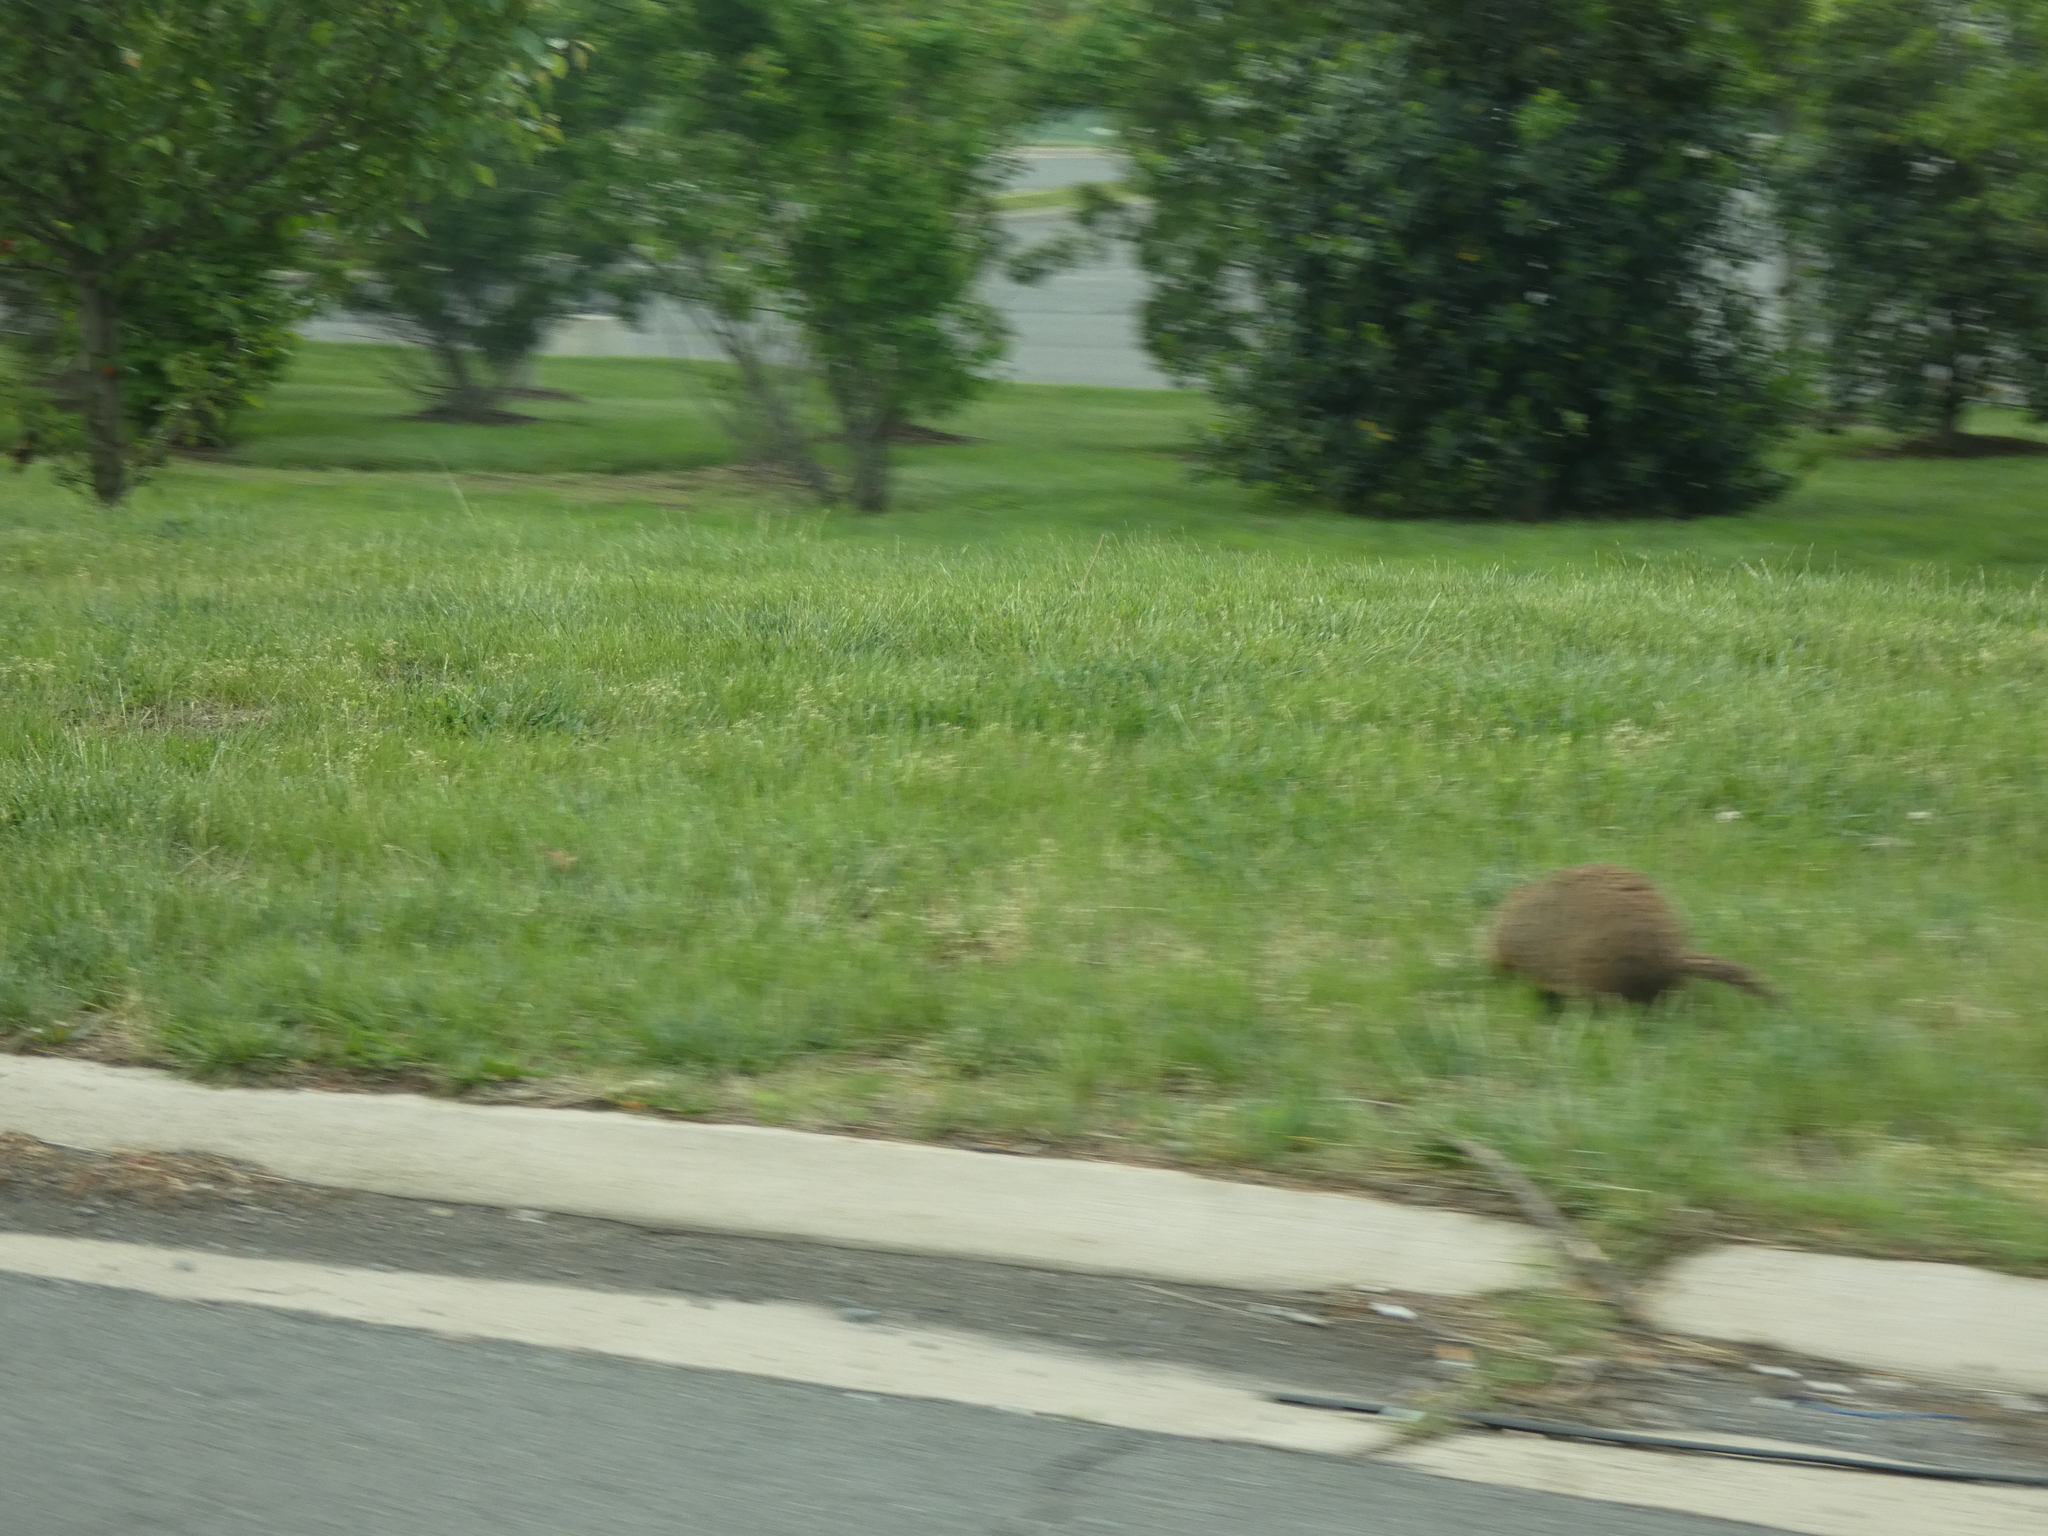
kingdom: Animalia
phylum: Chordata
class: Mammalia
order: Rodentia
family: Sciuridae
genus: Marmota
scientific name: Marmota monax
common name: Groundhog
